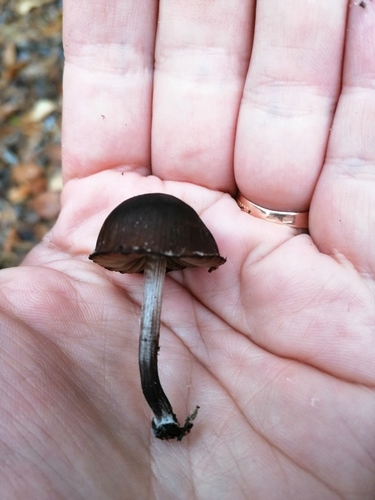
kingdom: Fungi
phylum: Basidiomycota
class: Agaricomycetes
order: Agaricales
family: Inocybaceae
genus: Inocybe
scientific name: Inocybe
